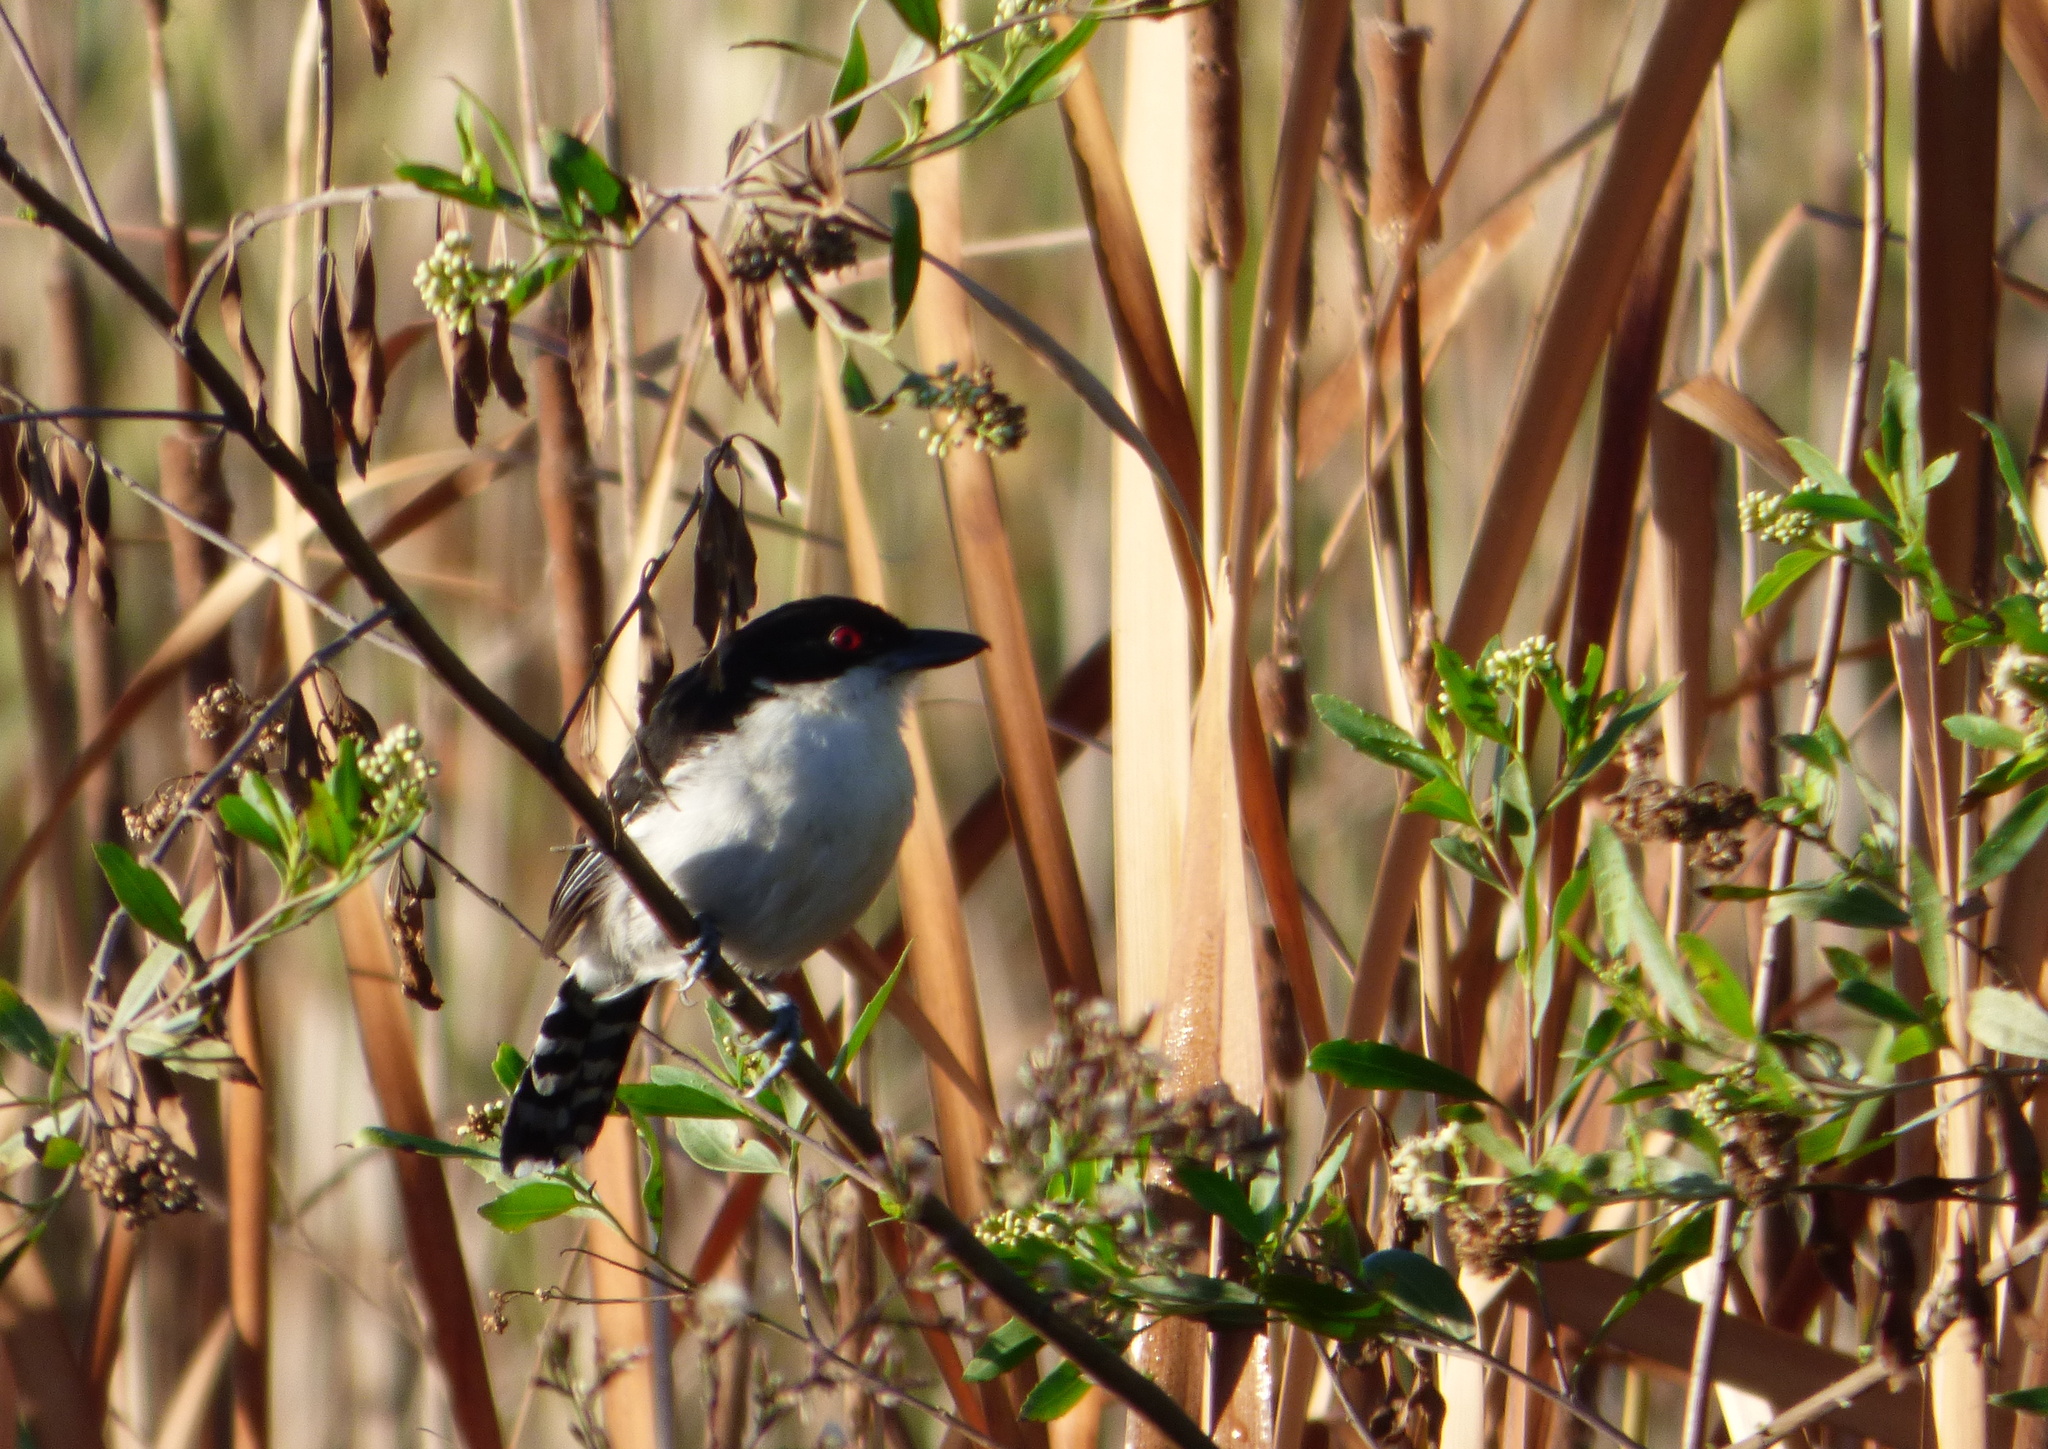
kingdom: Animalia
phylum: Chordata
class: Aves
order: Passeriformes
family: Thamnophilidae
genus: Taraba
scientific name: Taraba major
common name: Great antshrike
